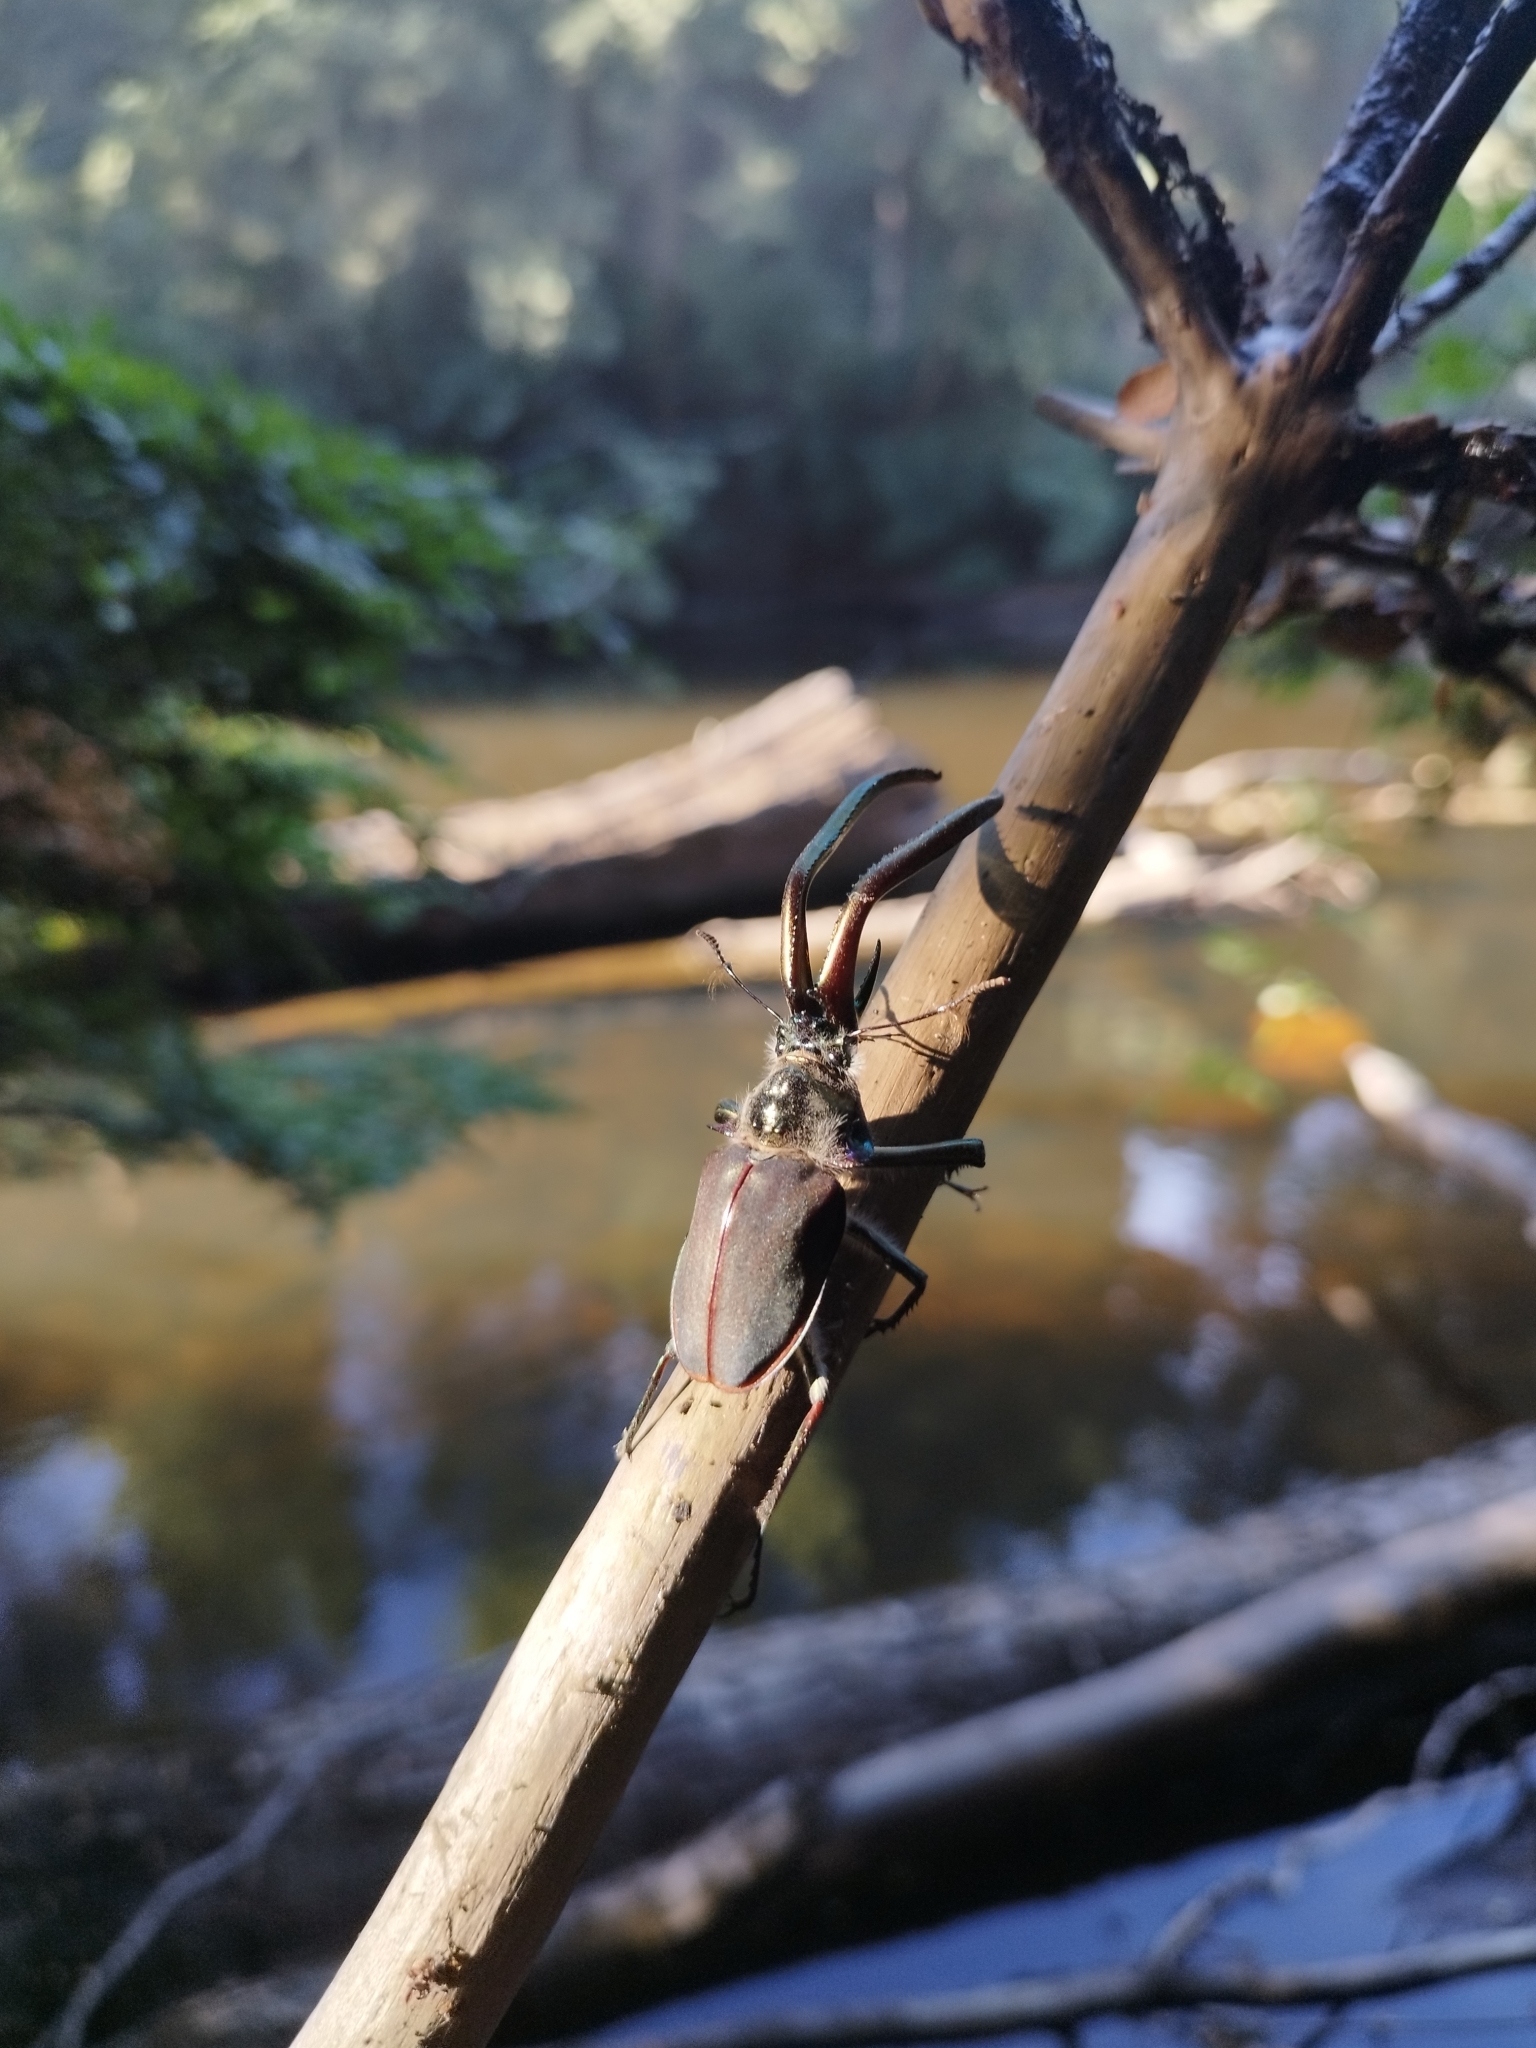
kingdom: Animalia
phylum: Arthropoda
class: Insecta
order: Coleoptera
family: Lucanidae
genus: Chiasognathus
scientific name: Chiasognathus grantii
